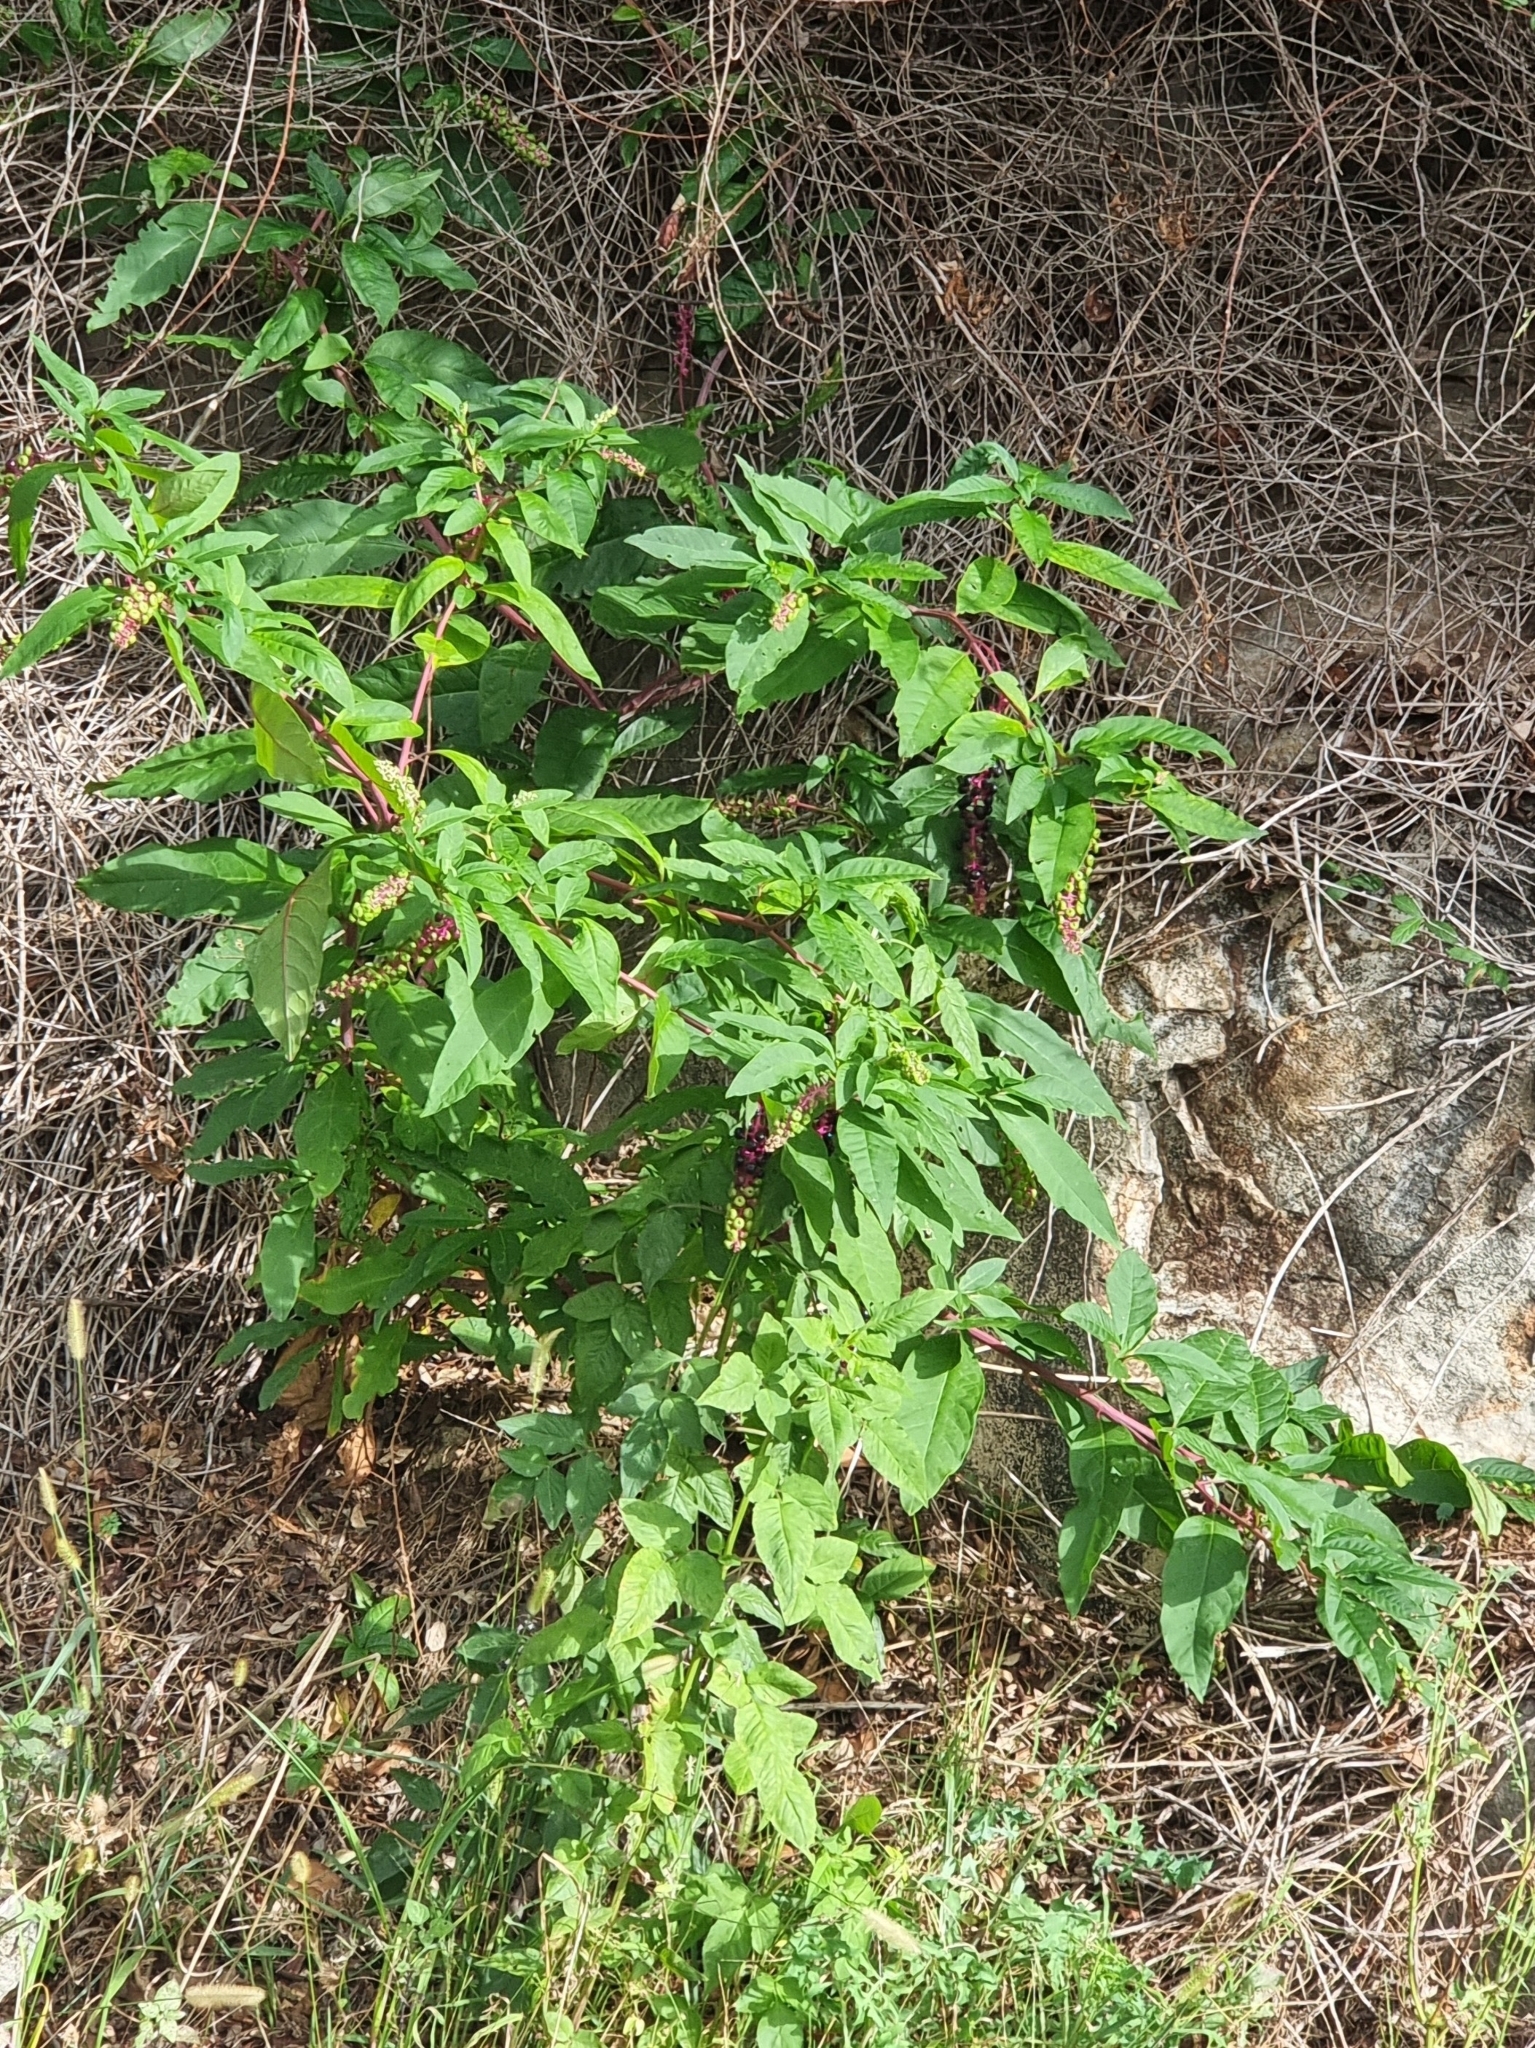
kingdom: Plantae
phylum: Tracheophyta
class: Magnoliopsida
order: Caryophyllales
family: Phytolaccaceae
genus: Phytolacca
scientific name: Phytolacca americana
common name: American pokeweed
